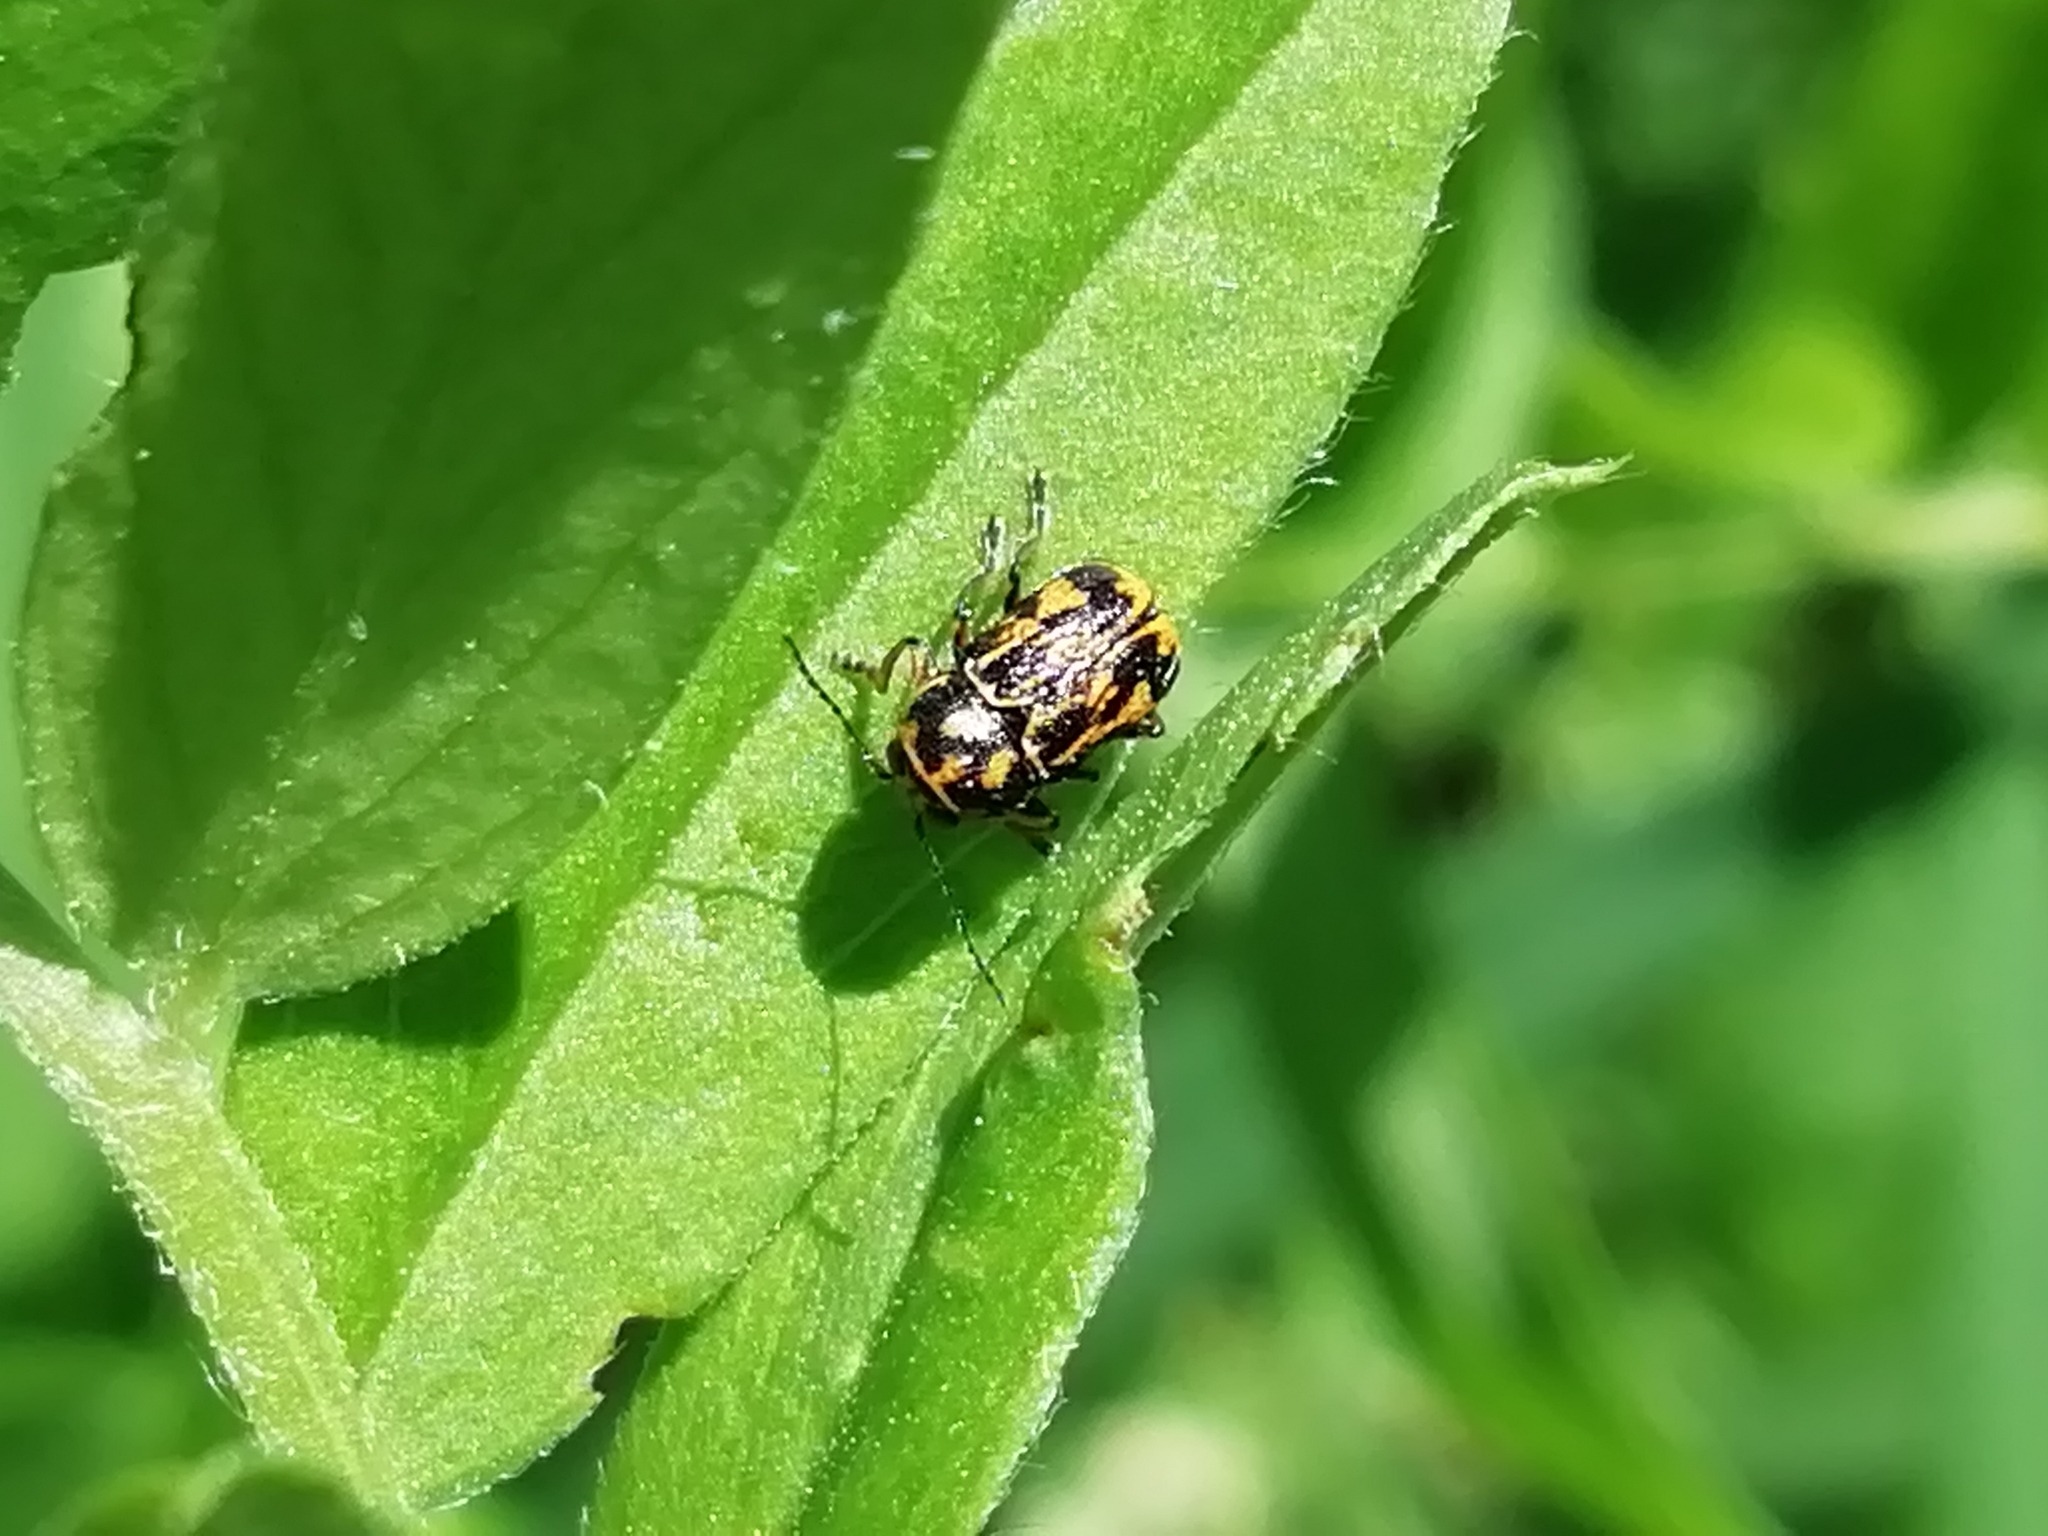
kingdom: Animalia
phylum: Arthropoda
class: Insecta
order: Coleoptera
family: Chrysomelidae
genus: Pachybrachis
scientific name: Pachybrachis hieroglyphicus
